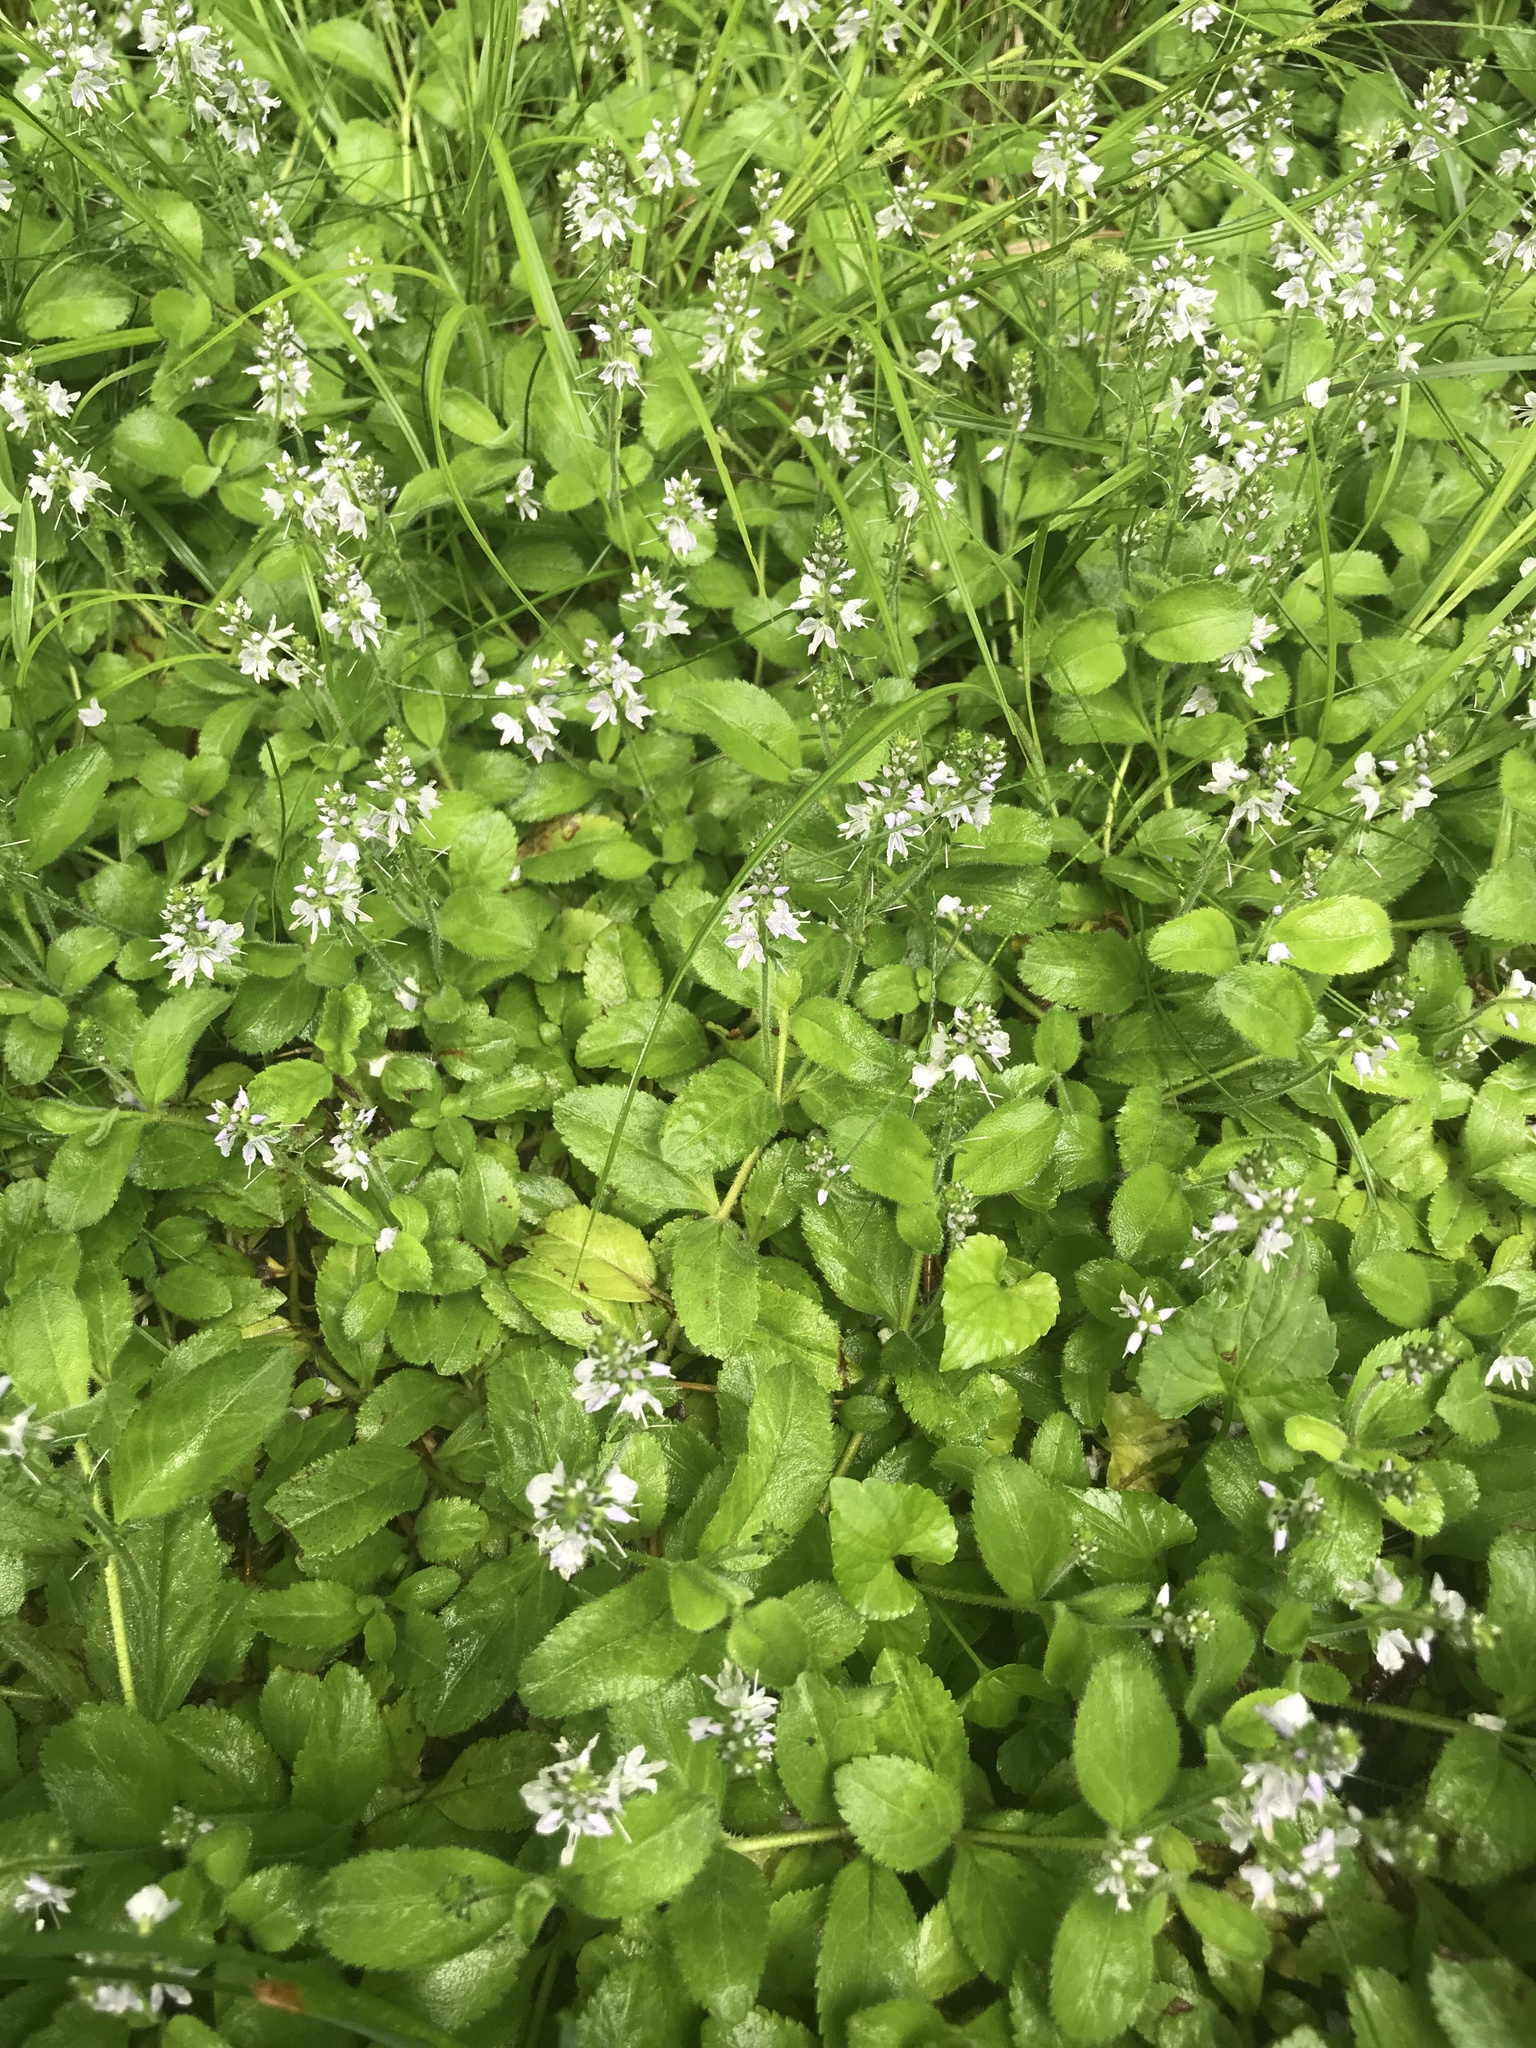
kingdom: Plantae
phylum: Tracheophyta
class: Magnoliopsida
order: Lamiales
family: Plantaginaceae
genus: Veronica
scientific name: Veronica officinalis
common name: Common speedwell
